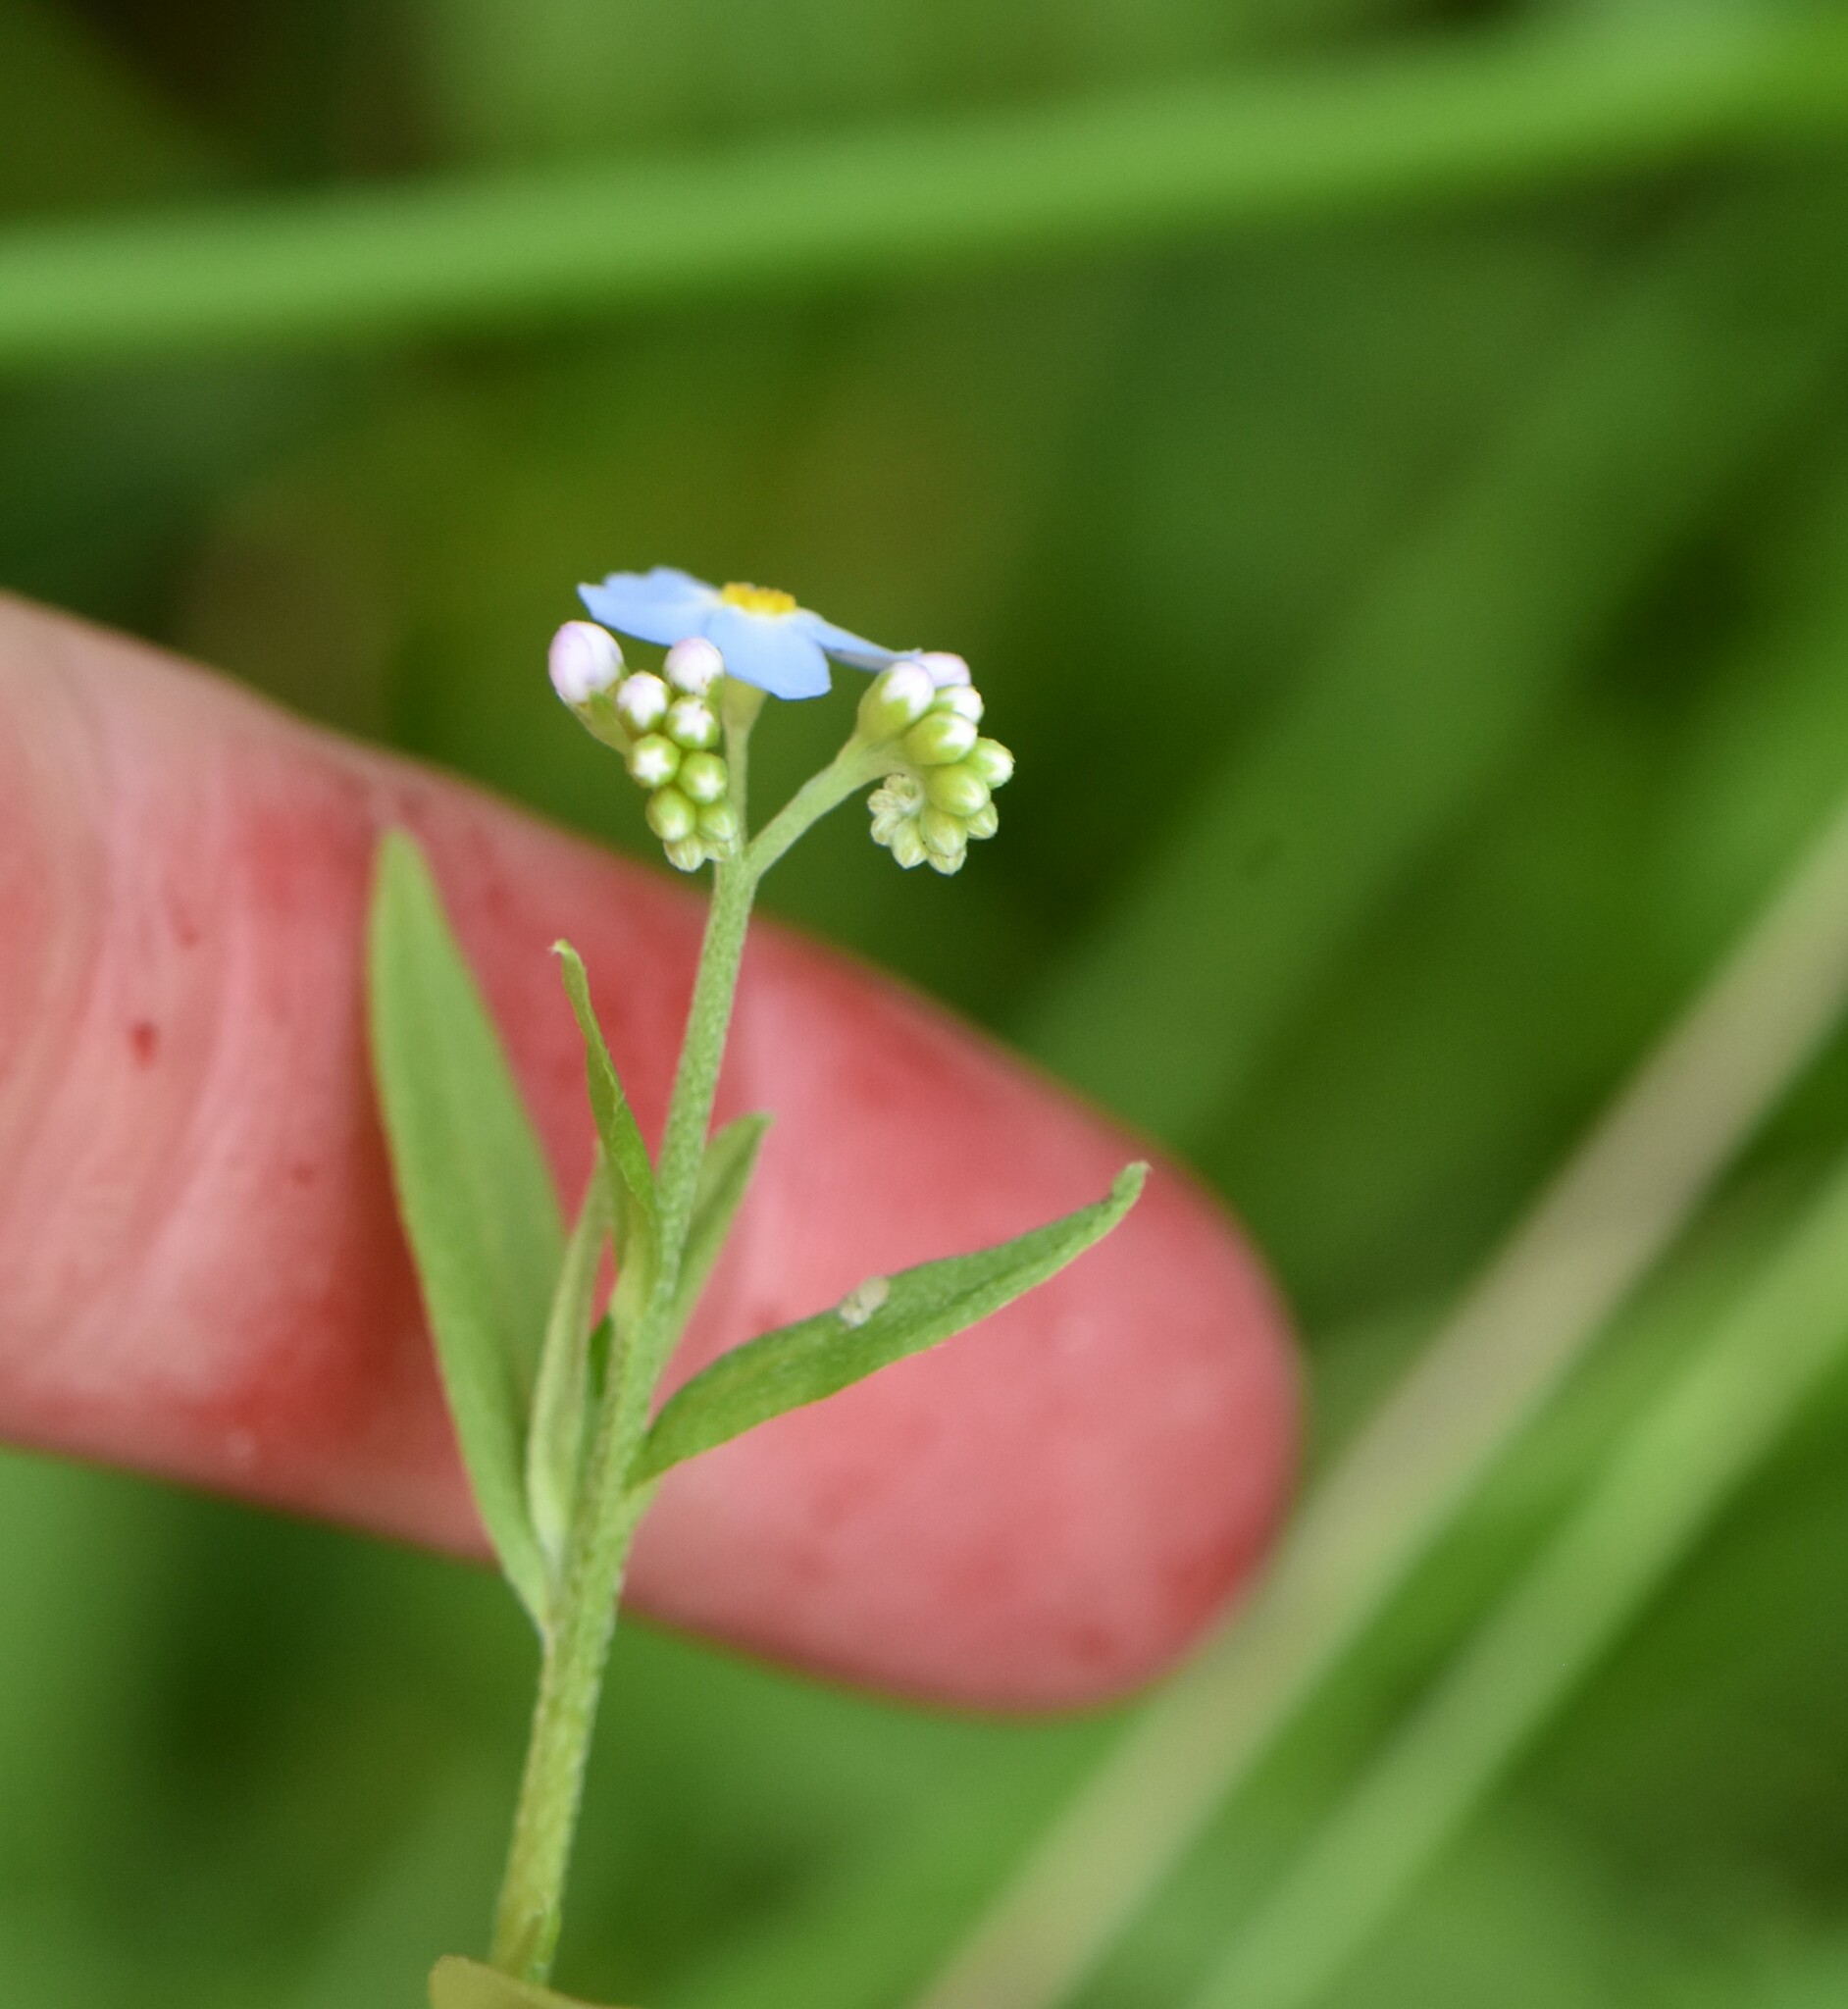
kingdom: Plantae
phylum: Tracheophyta
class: Magnoliopsida
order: Boraginales
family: Boraginaceae
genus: Myosotis
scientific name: Myosotis scorpioides
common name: Water forget-me-not
